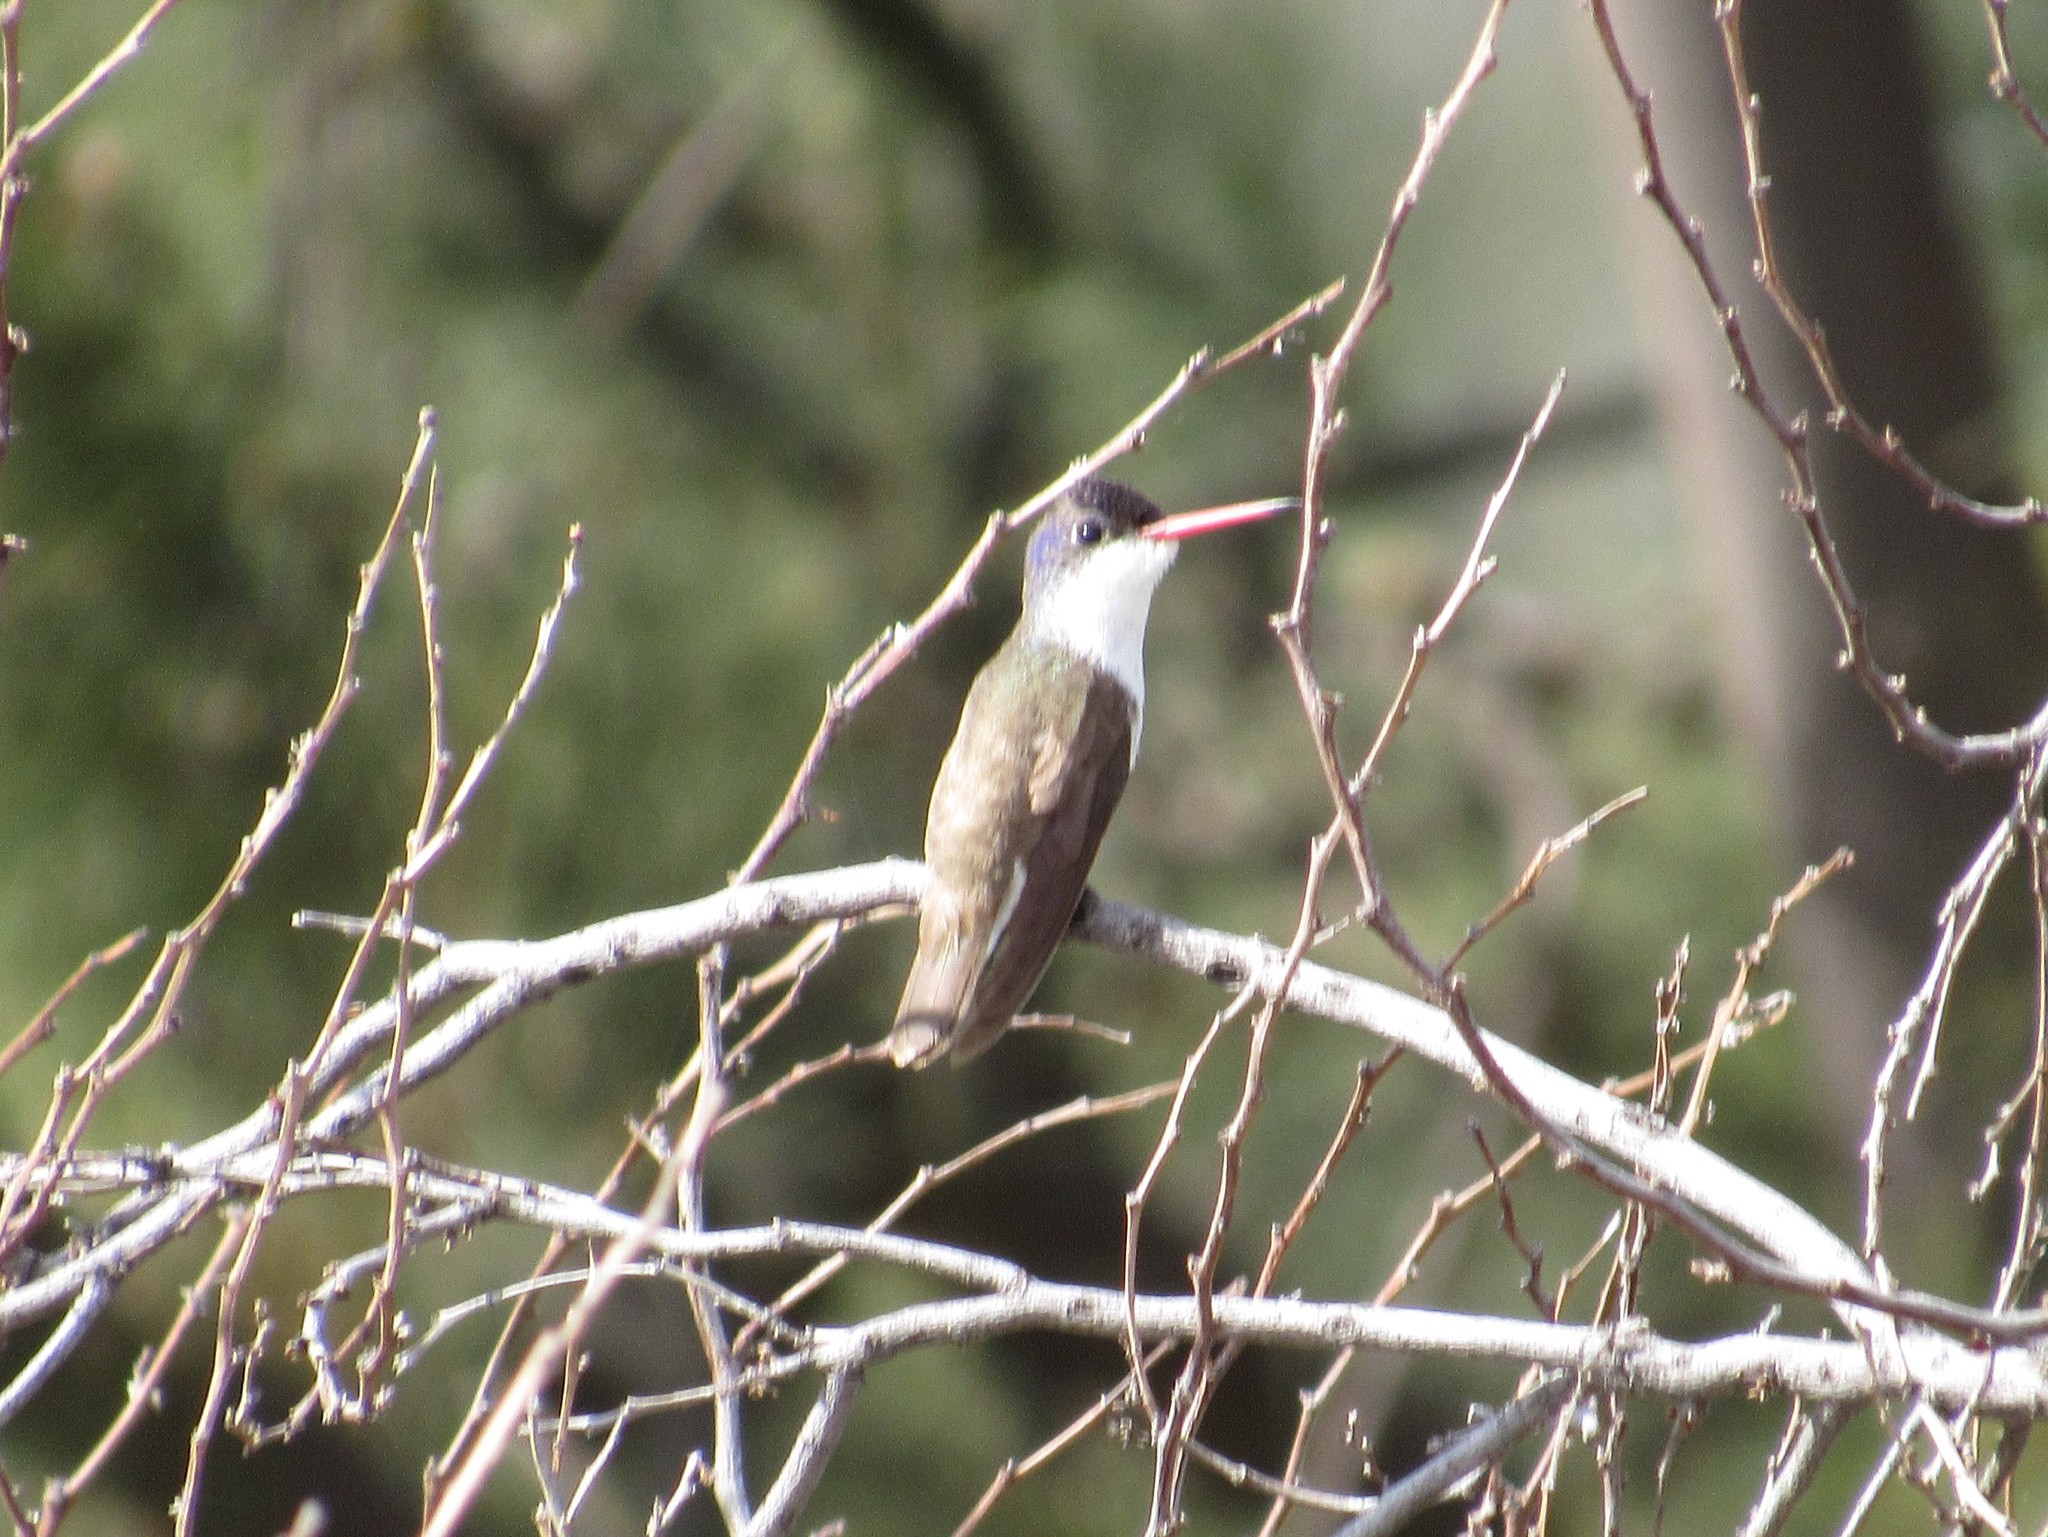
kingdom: Animalia
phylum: Chordata
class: Aves
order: Apodiformes
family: Trochilidae
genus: Leucolia
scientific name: Leucolia violiceps
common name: Violet-crowned hummingbird
